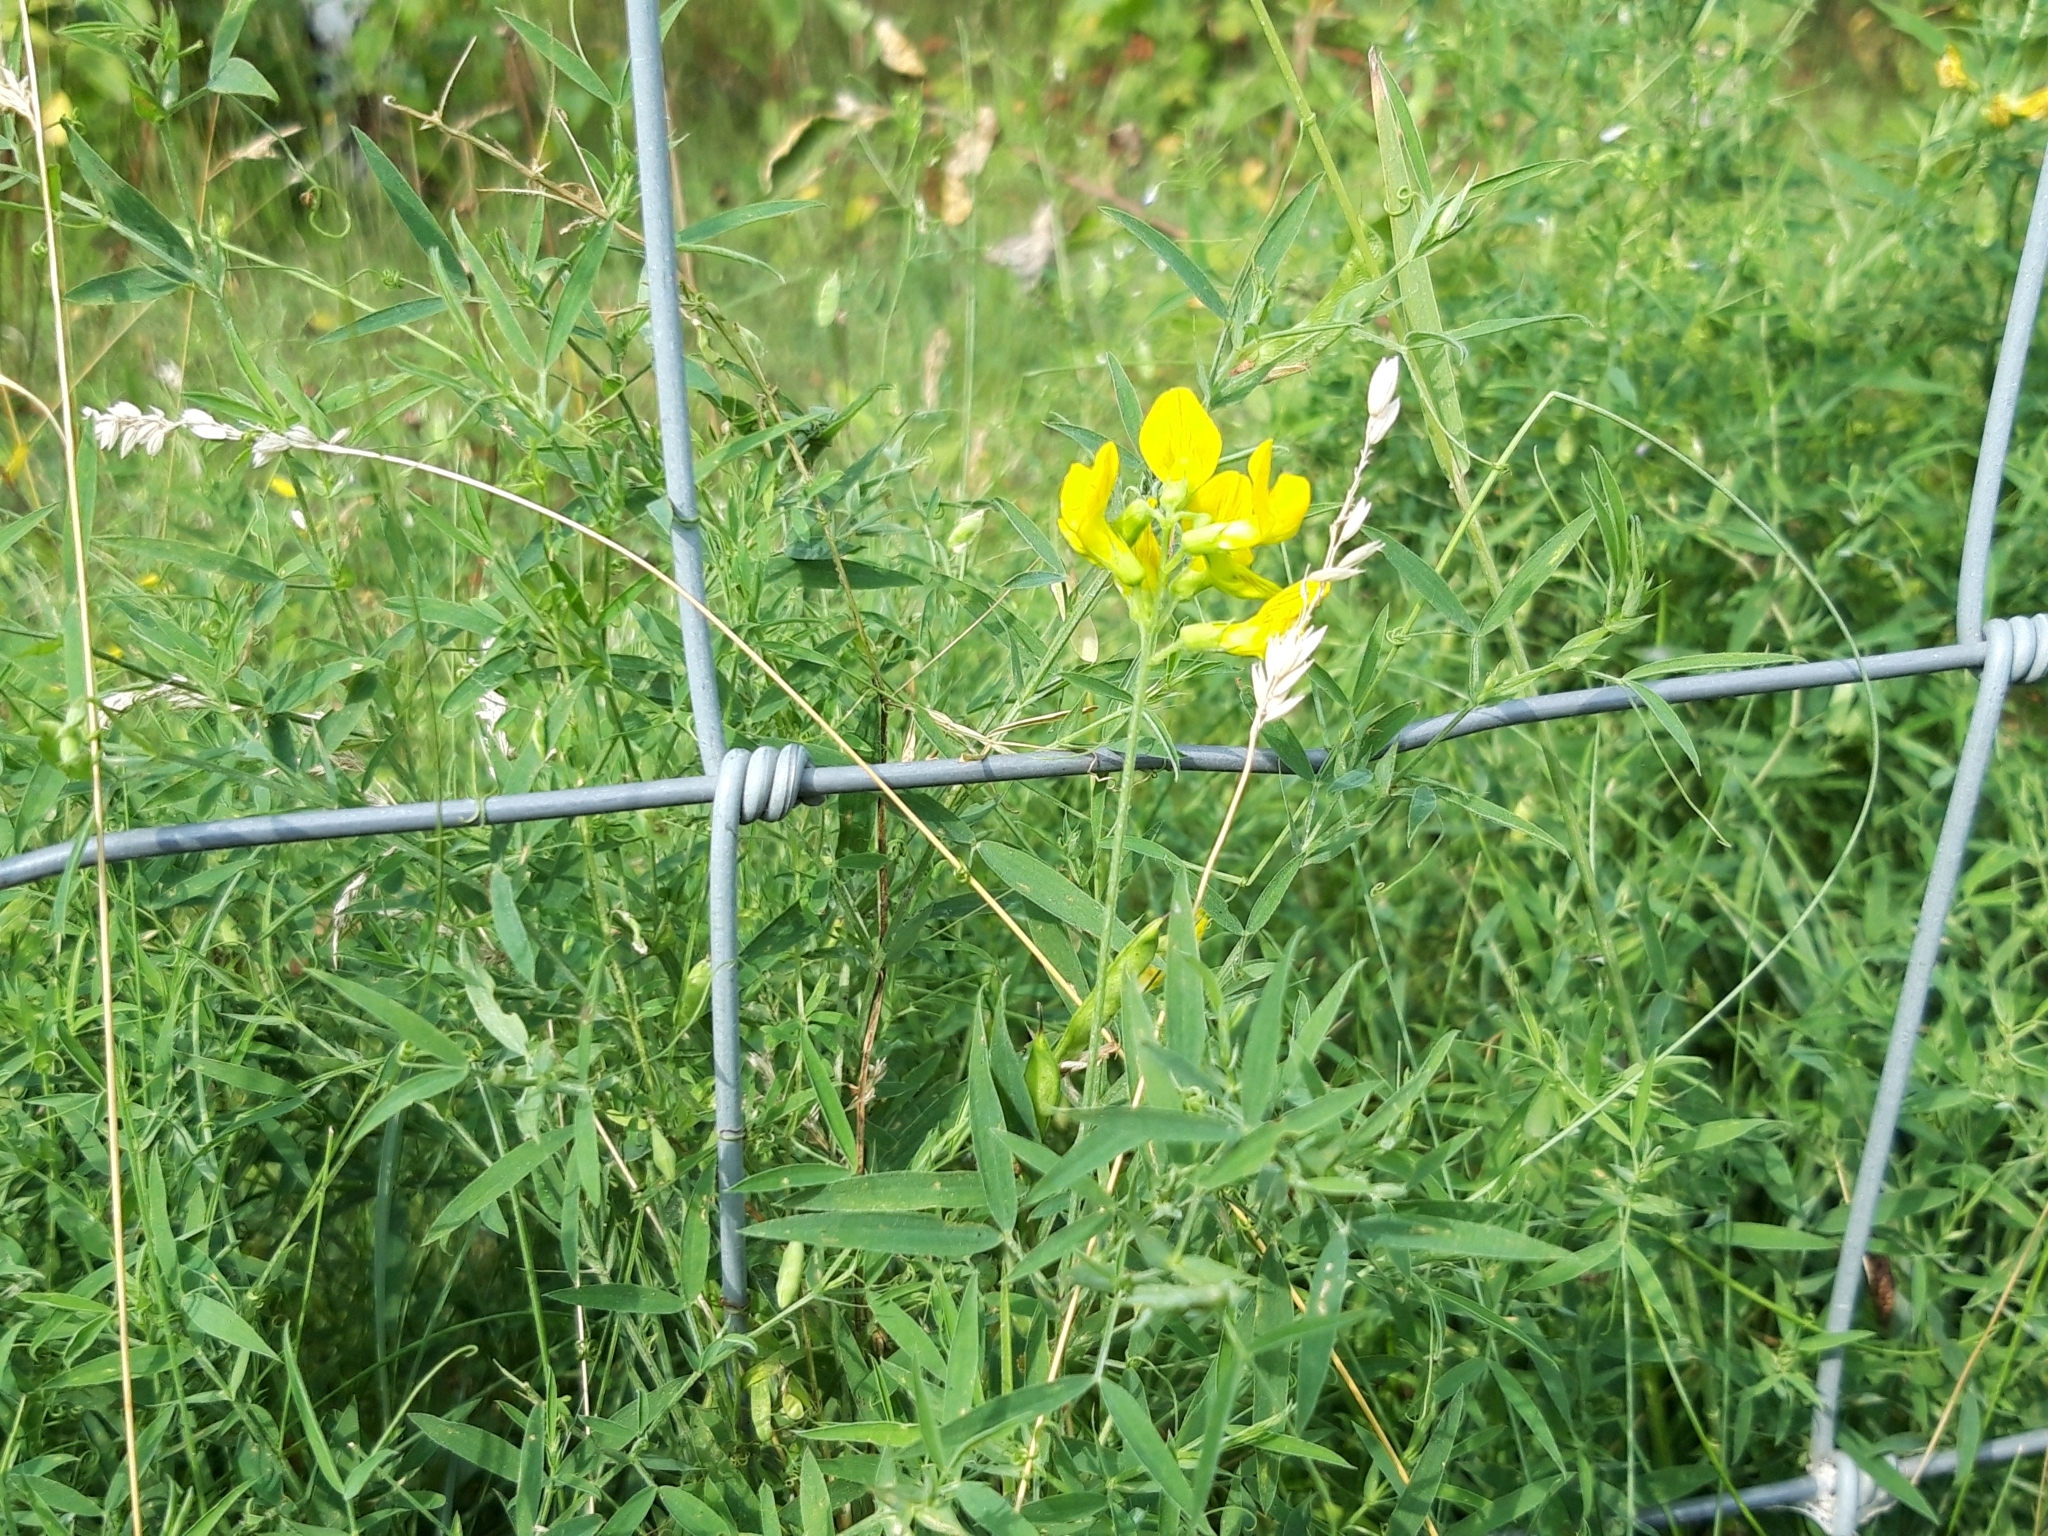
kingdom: Plantae
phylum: Tracheophyta
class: Magnoliopsida
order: Fabales
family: Fabaceae
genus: Lathyrus
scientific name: Lathyrus pratensis
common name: Meadow vetchling
